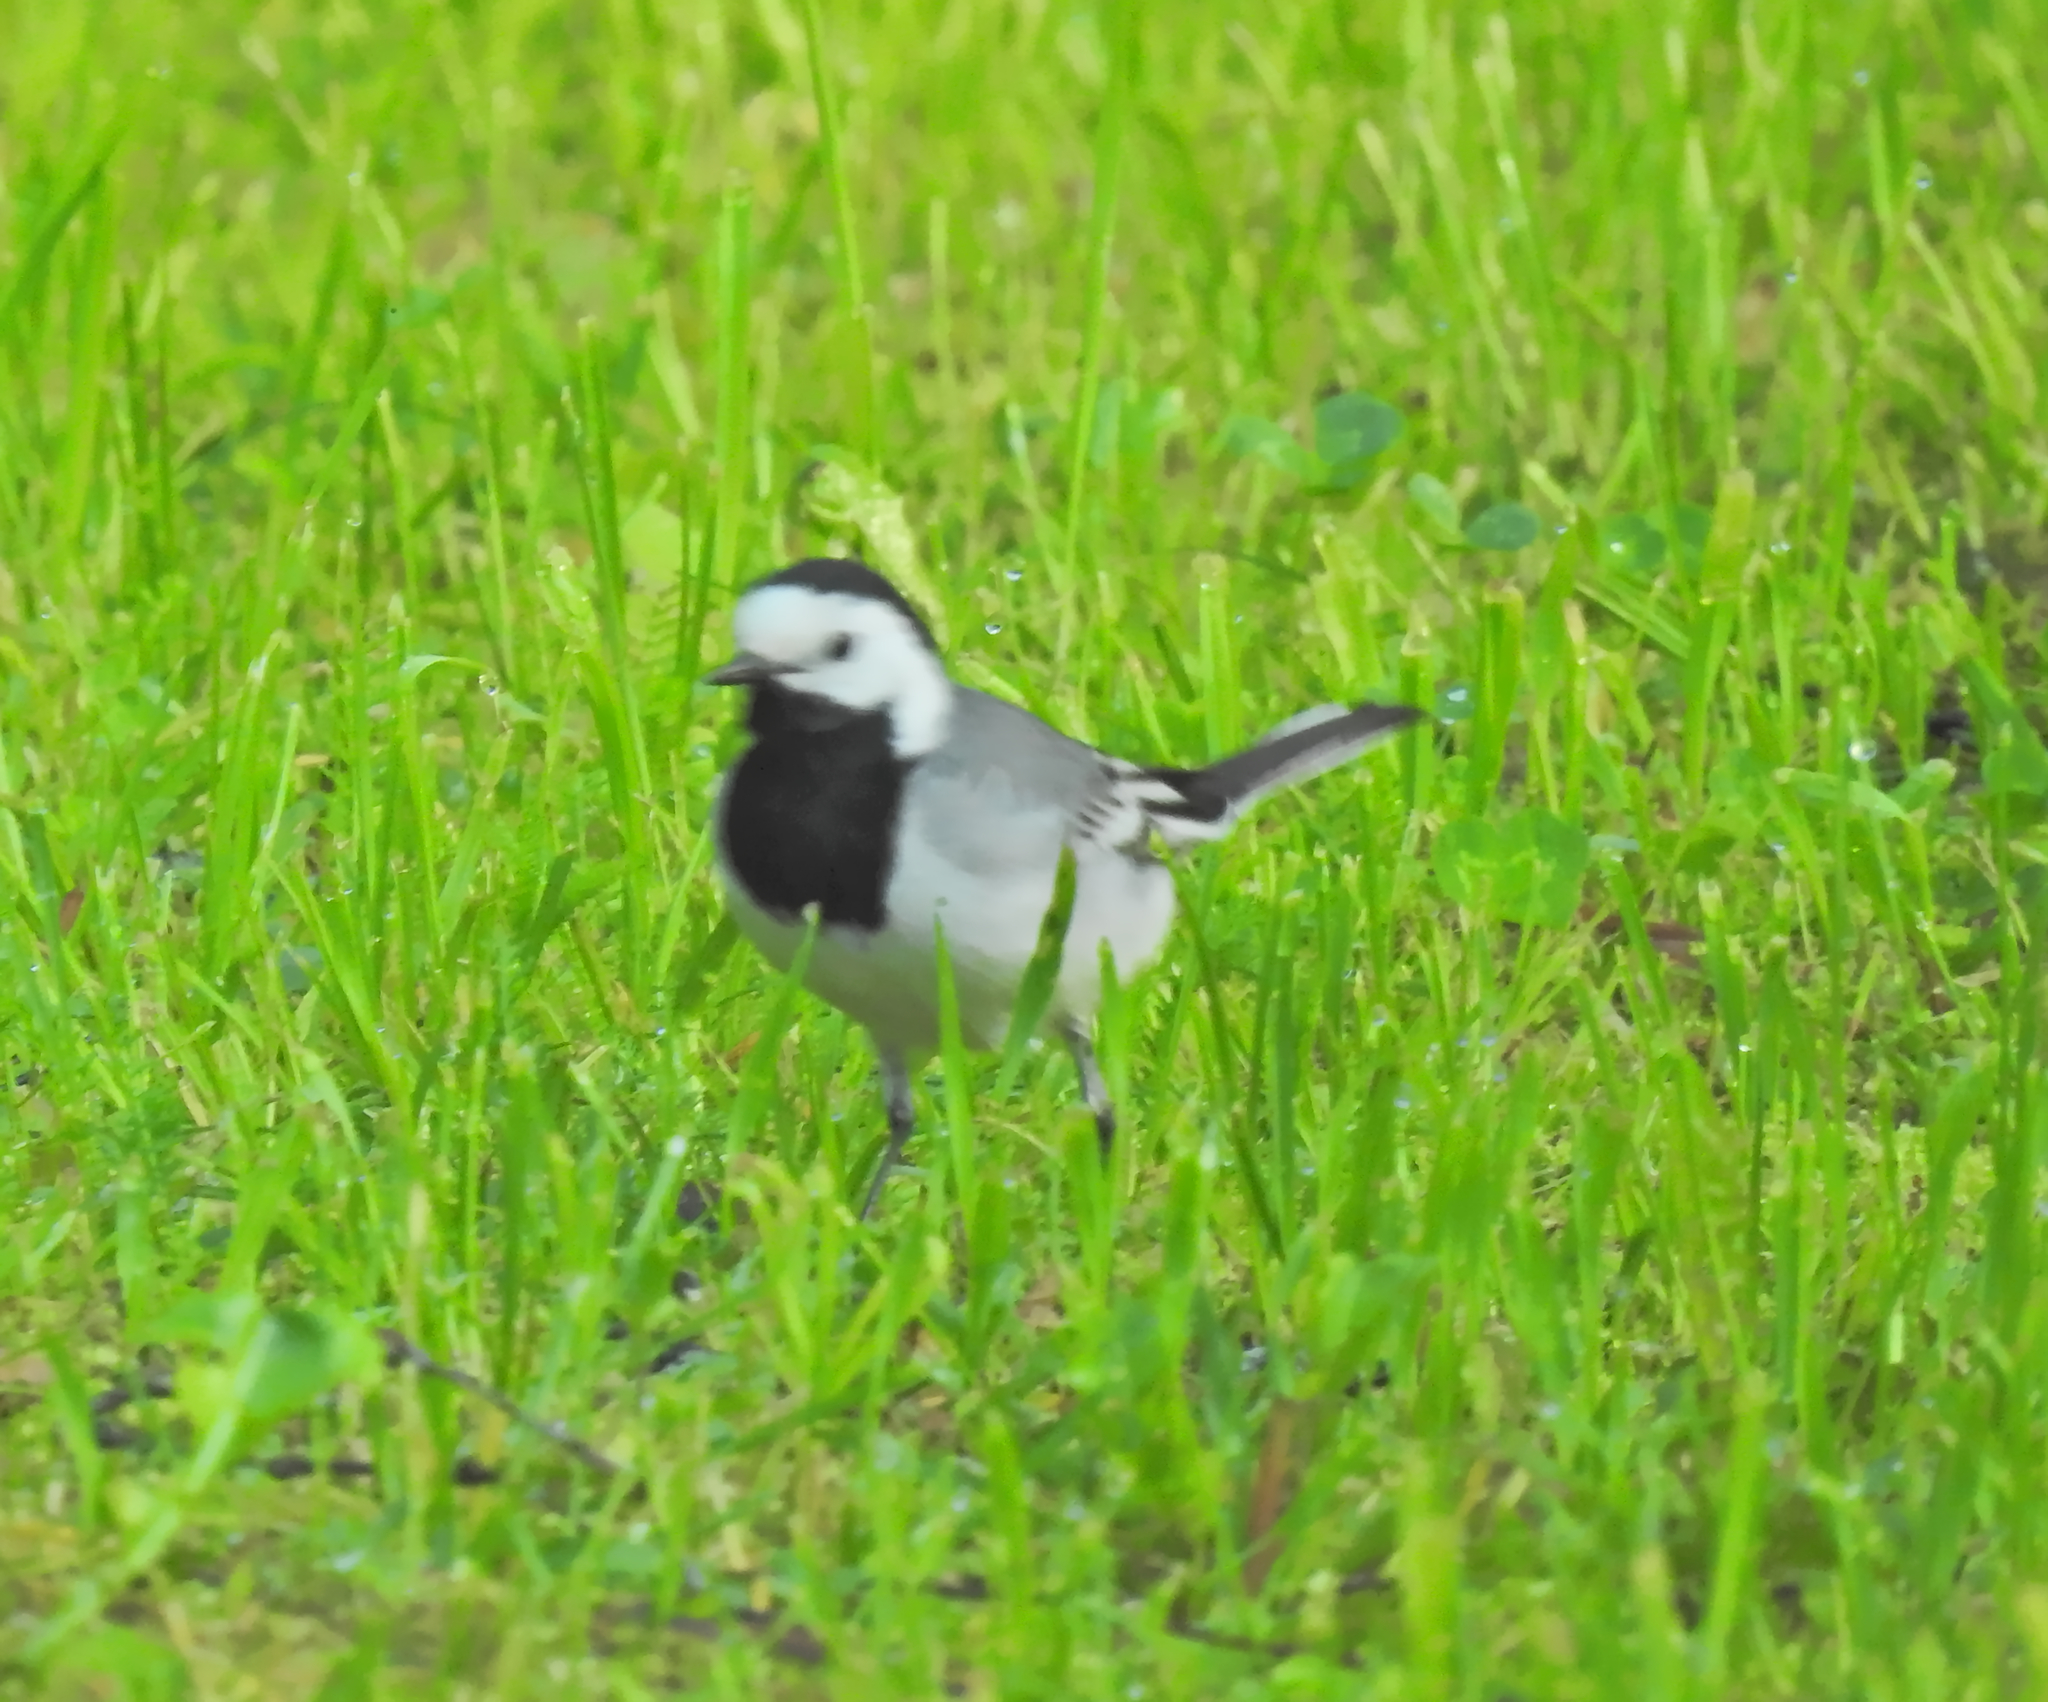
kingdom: Animalia
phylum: Chordata
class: Aves
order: Passeriformes
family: Motacillidae
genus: Motacilla
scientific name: Motacilla alba
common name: White wagtail
